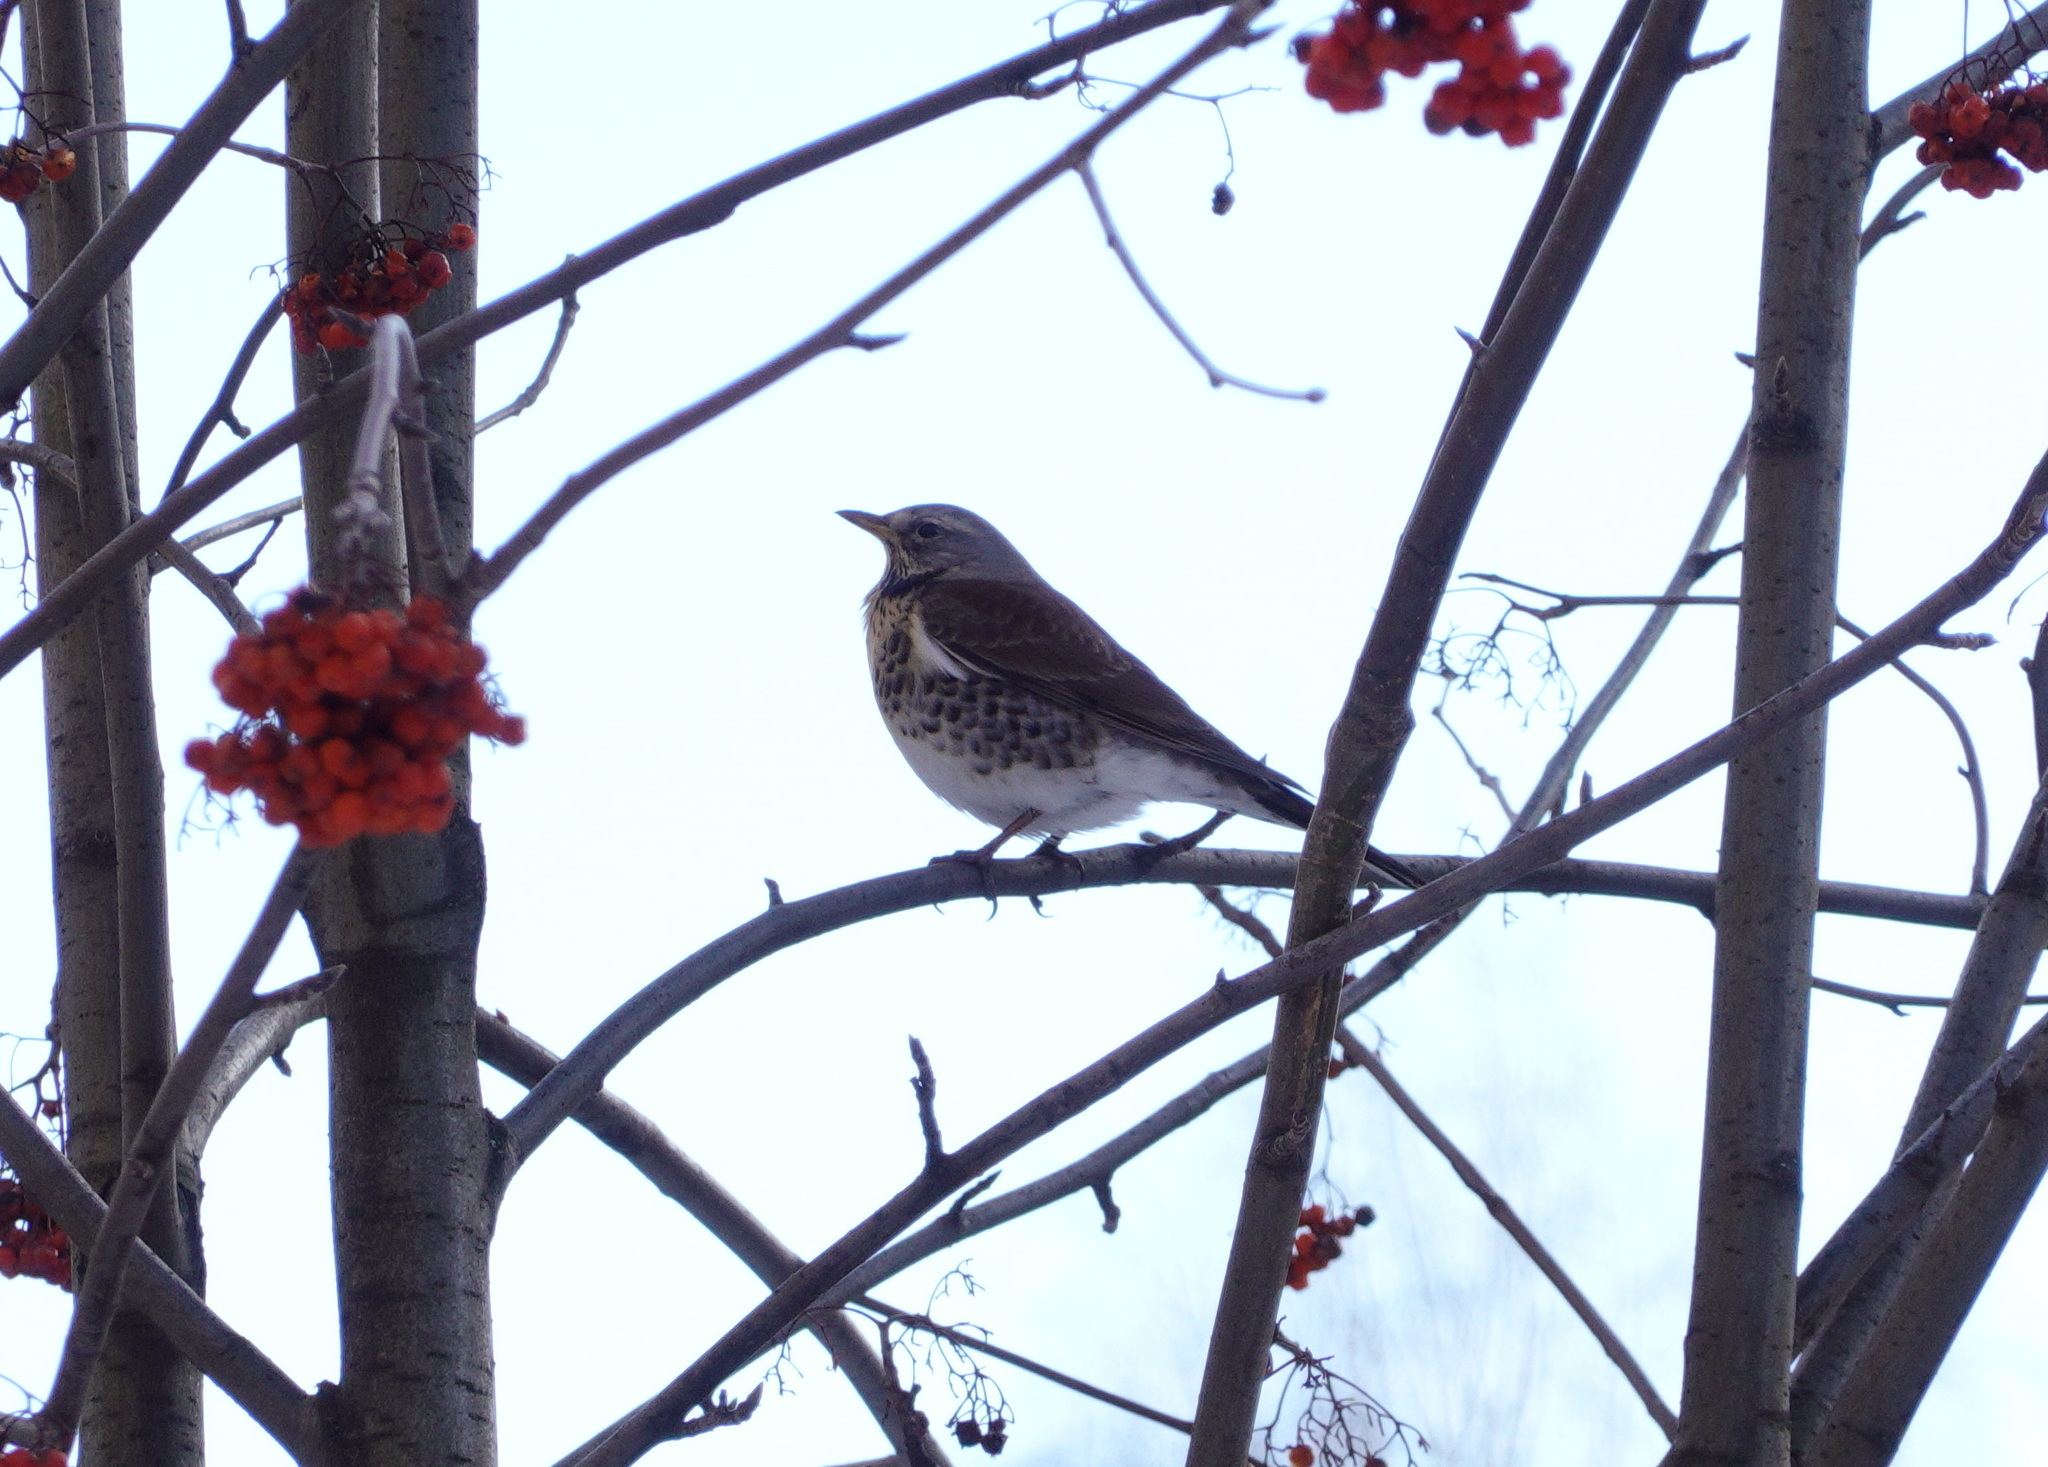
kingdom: Animalia
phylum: Chordata
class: Aves
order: Passeriformes
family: Turdidae
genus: Turdus
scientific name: Turdus pilaris
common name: Fieldfare
